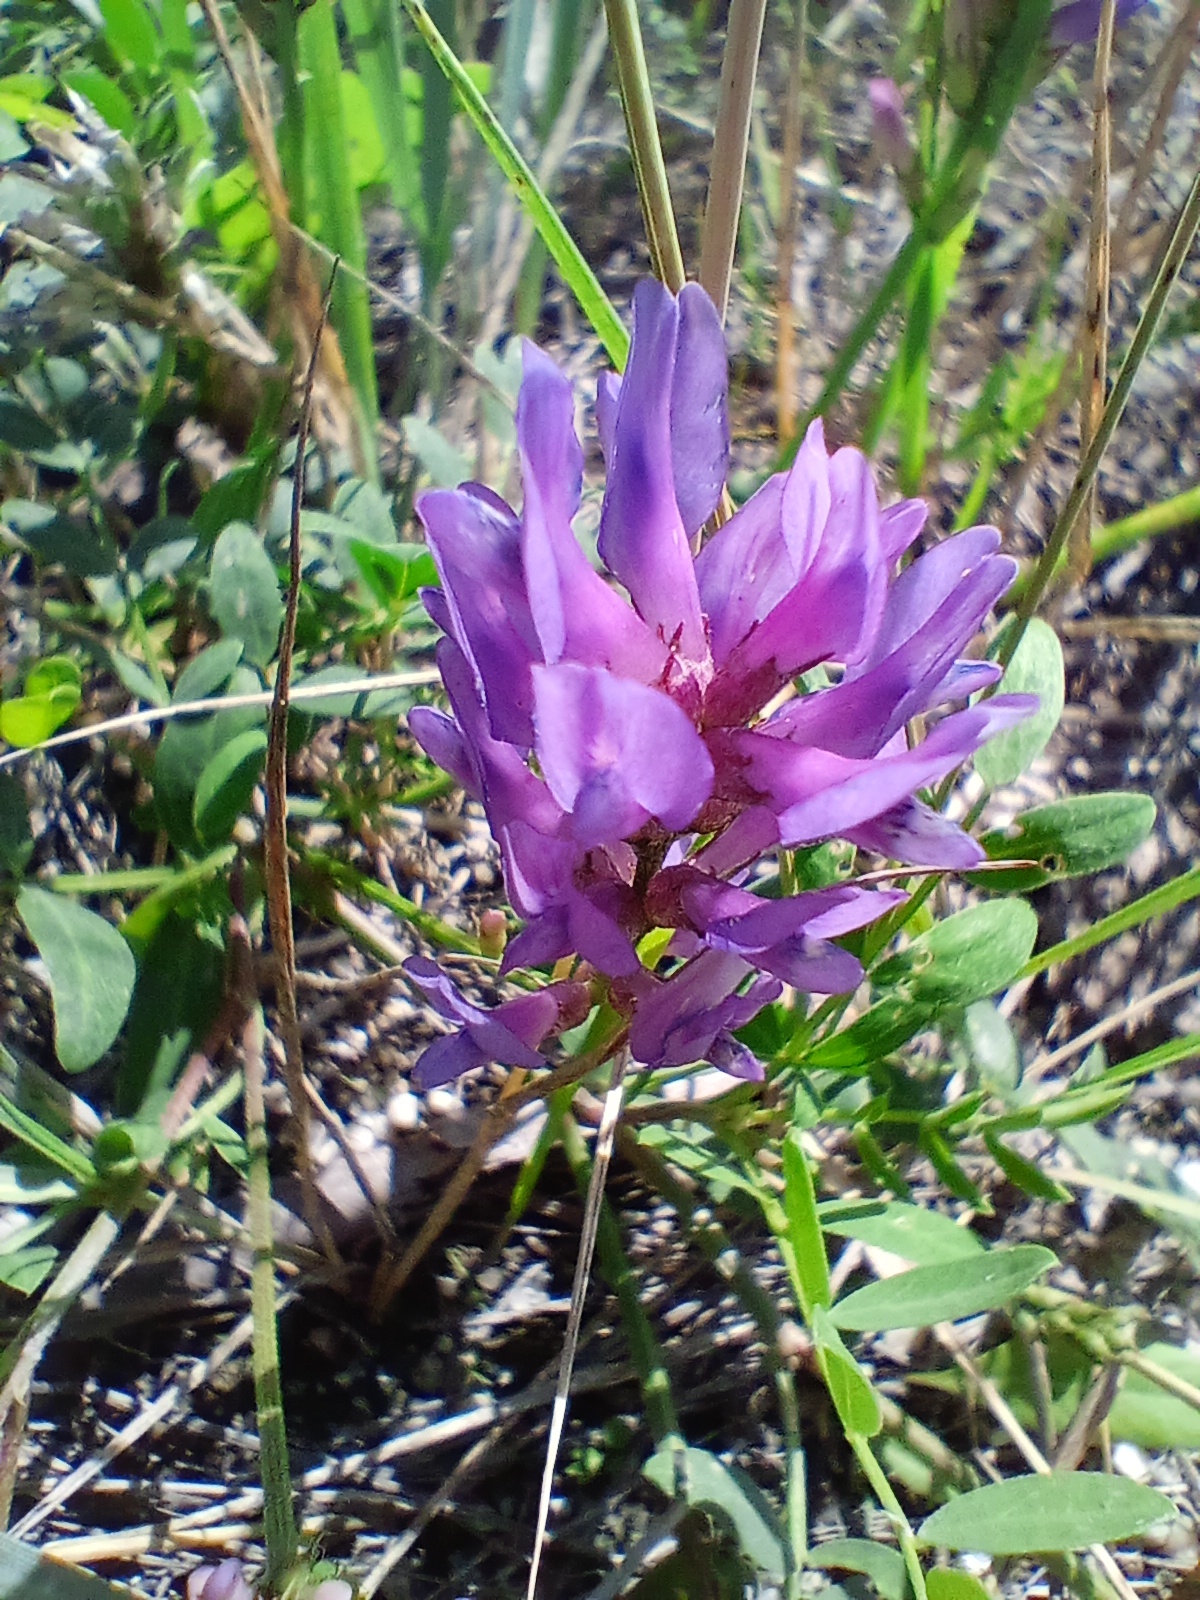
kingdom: Plantae
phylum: Tracheophyta
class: Magnoliopsida
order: Fabales
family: Fabaceae
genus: Astragalus
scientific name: Astragalus laxmannii
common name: Laxmann's milk-vetch
